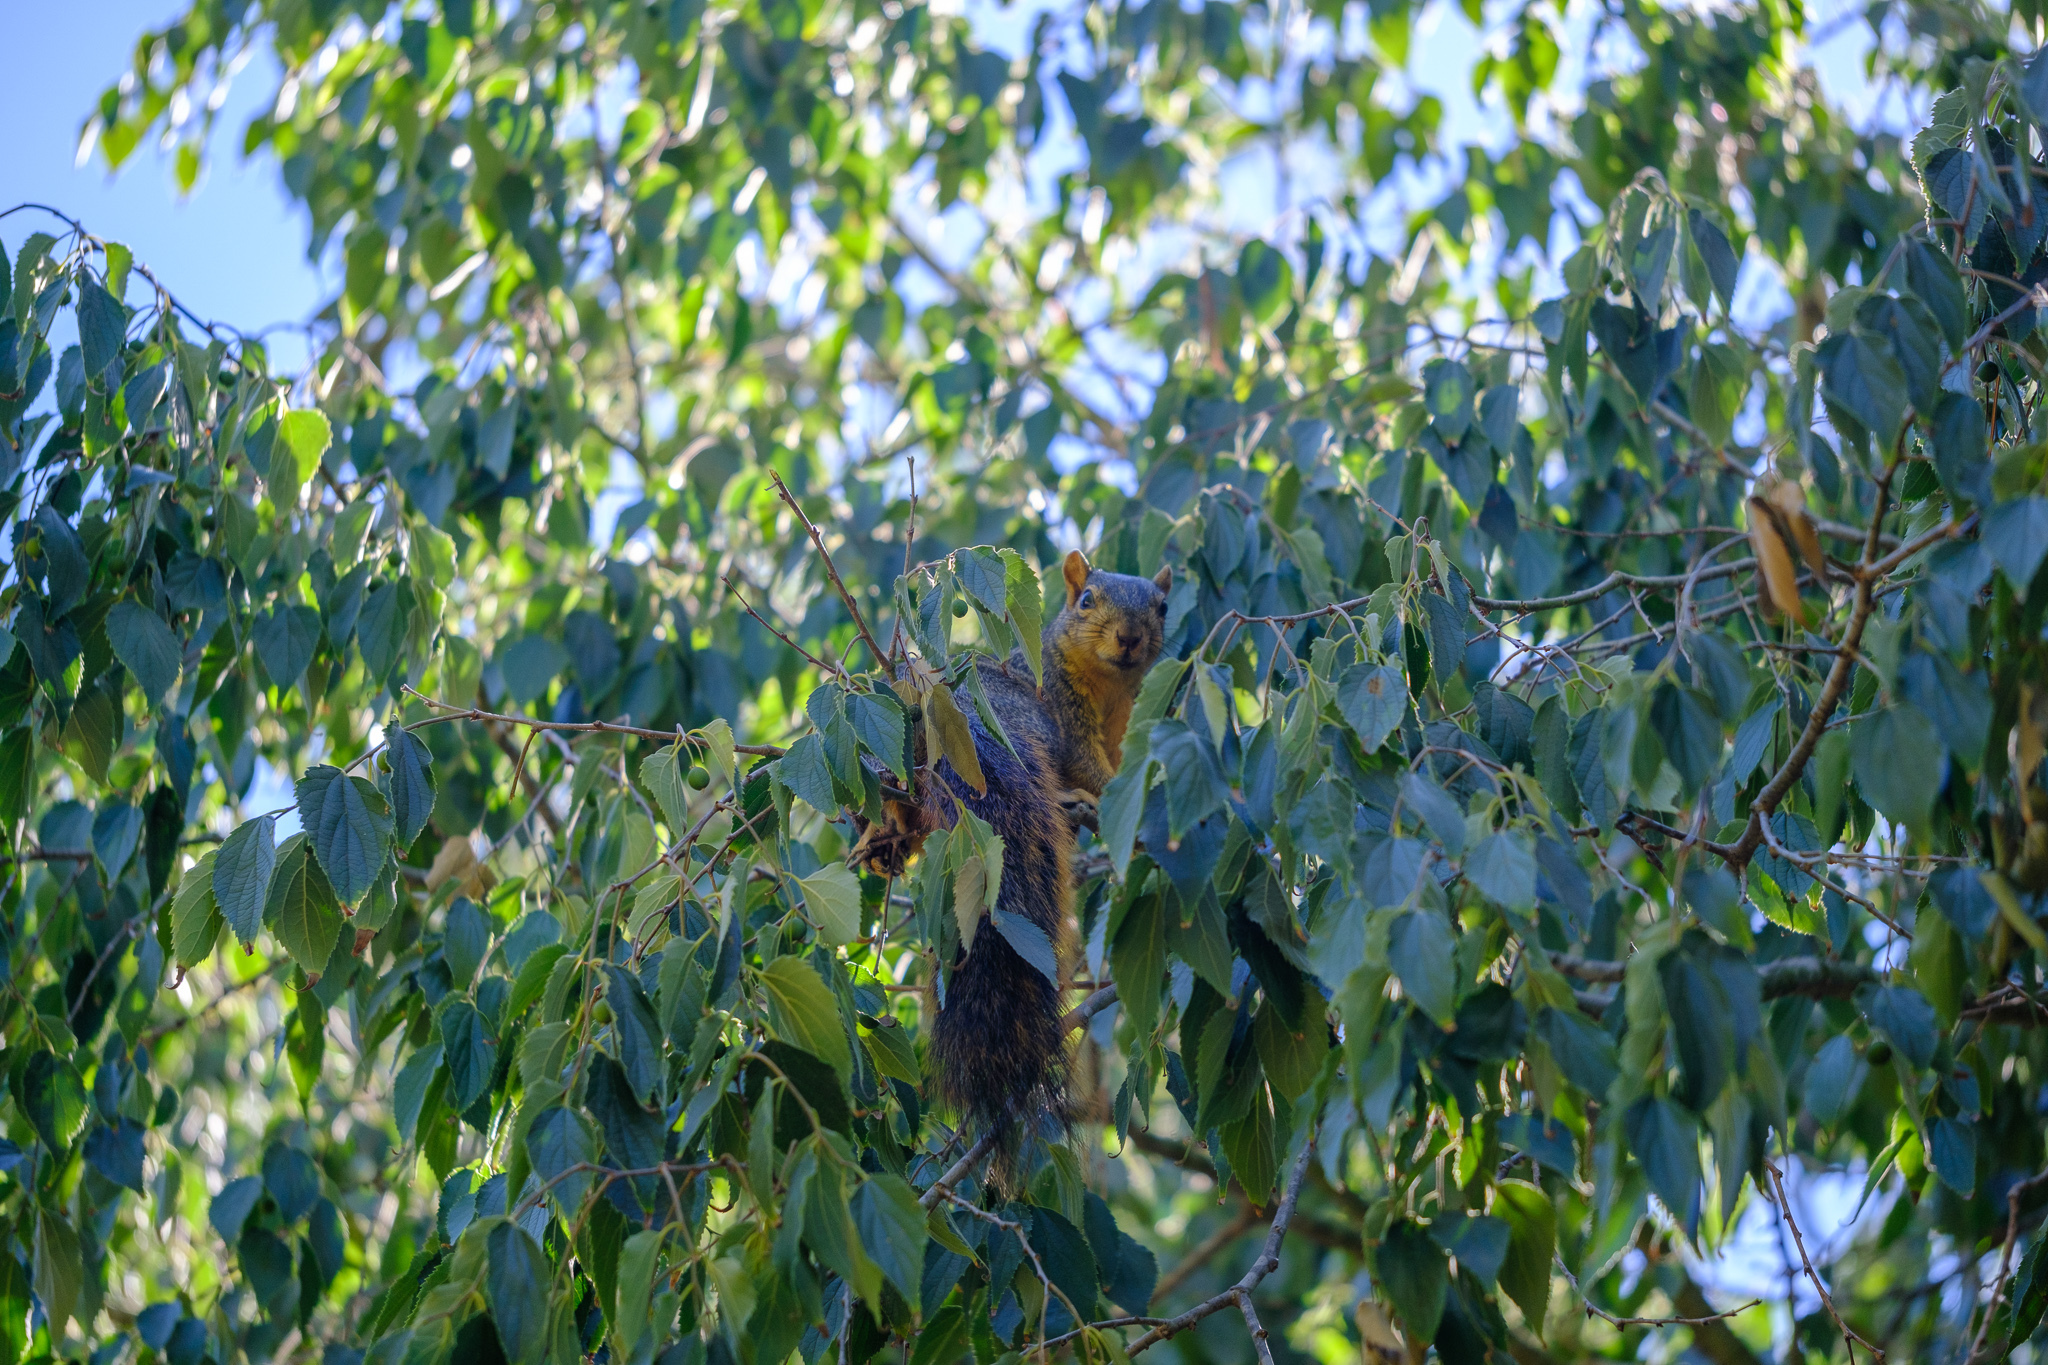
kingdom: Animalia
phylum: Chordata
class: Mammalia
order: Rodentia
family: Sciuridae
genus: Sciurus
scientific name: Sciurus niger
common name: Fox squirrel
